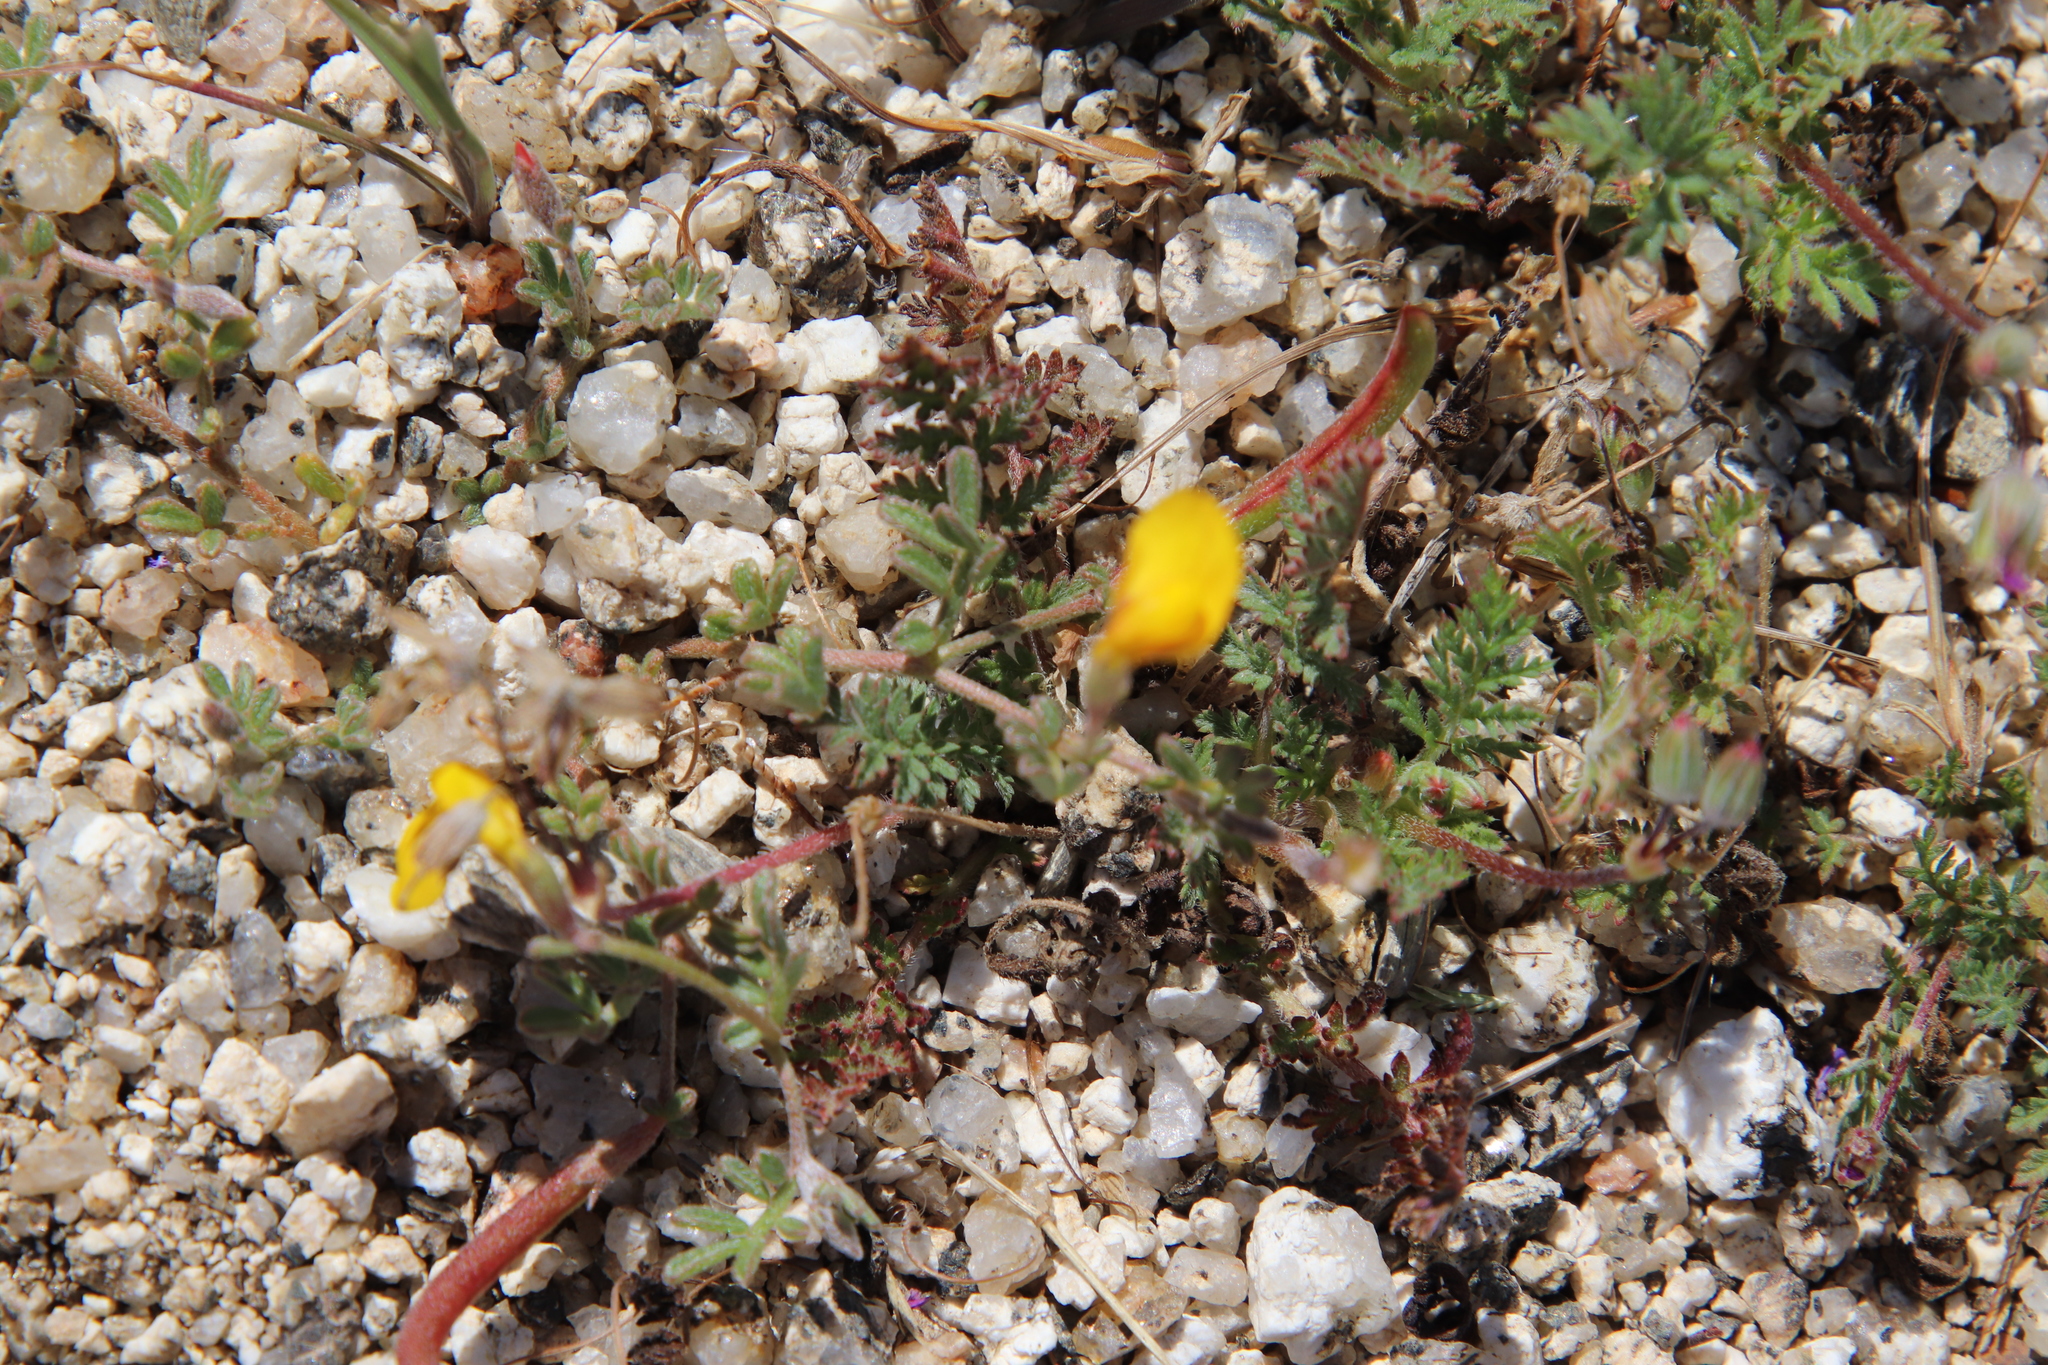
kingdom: Plantae
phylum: Tracheophyta
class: Magnoliopsida
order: Fabales
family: Fabaceae
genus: Acmispon
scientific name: Acmispon strigosus
